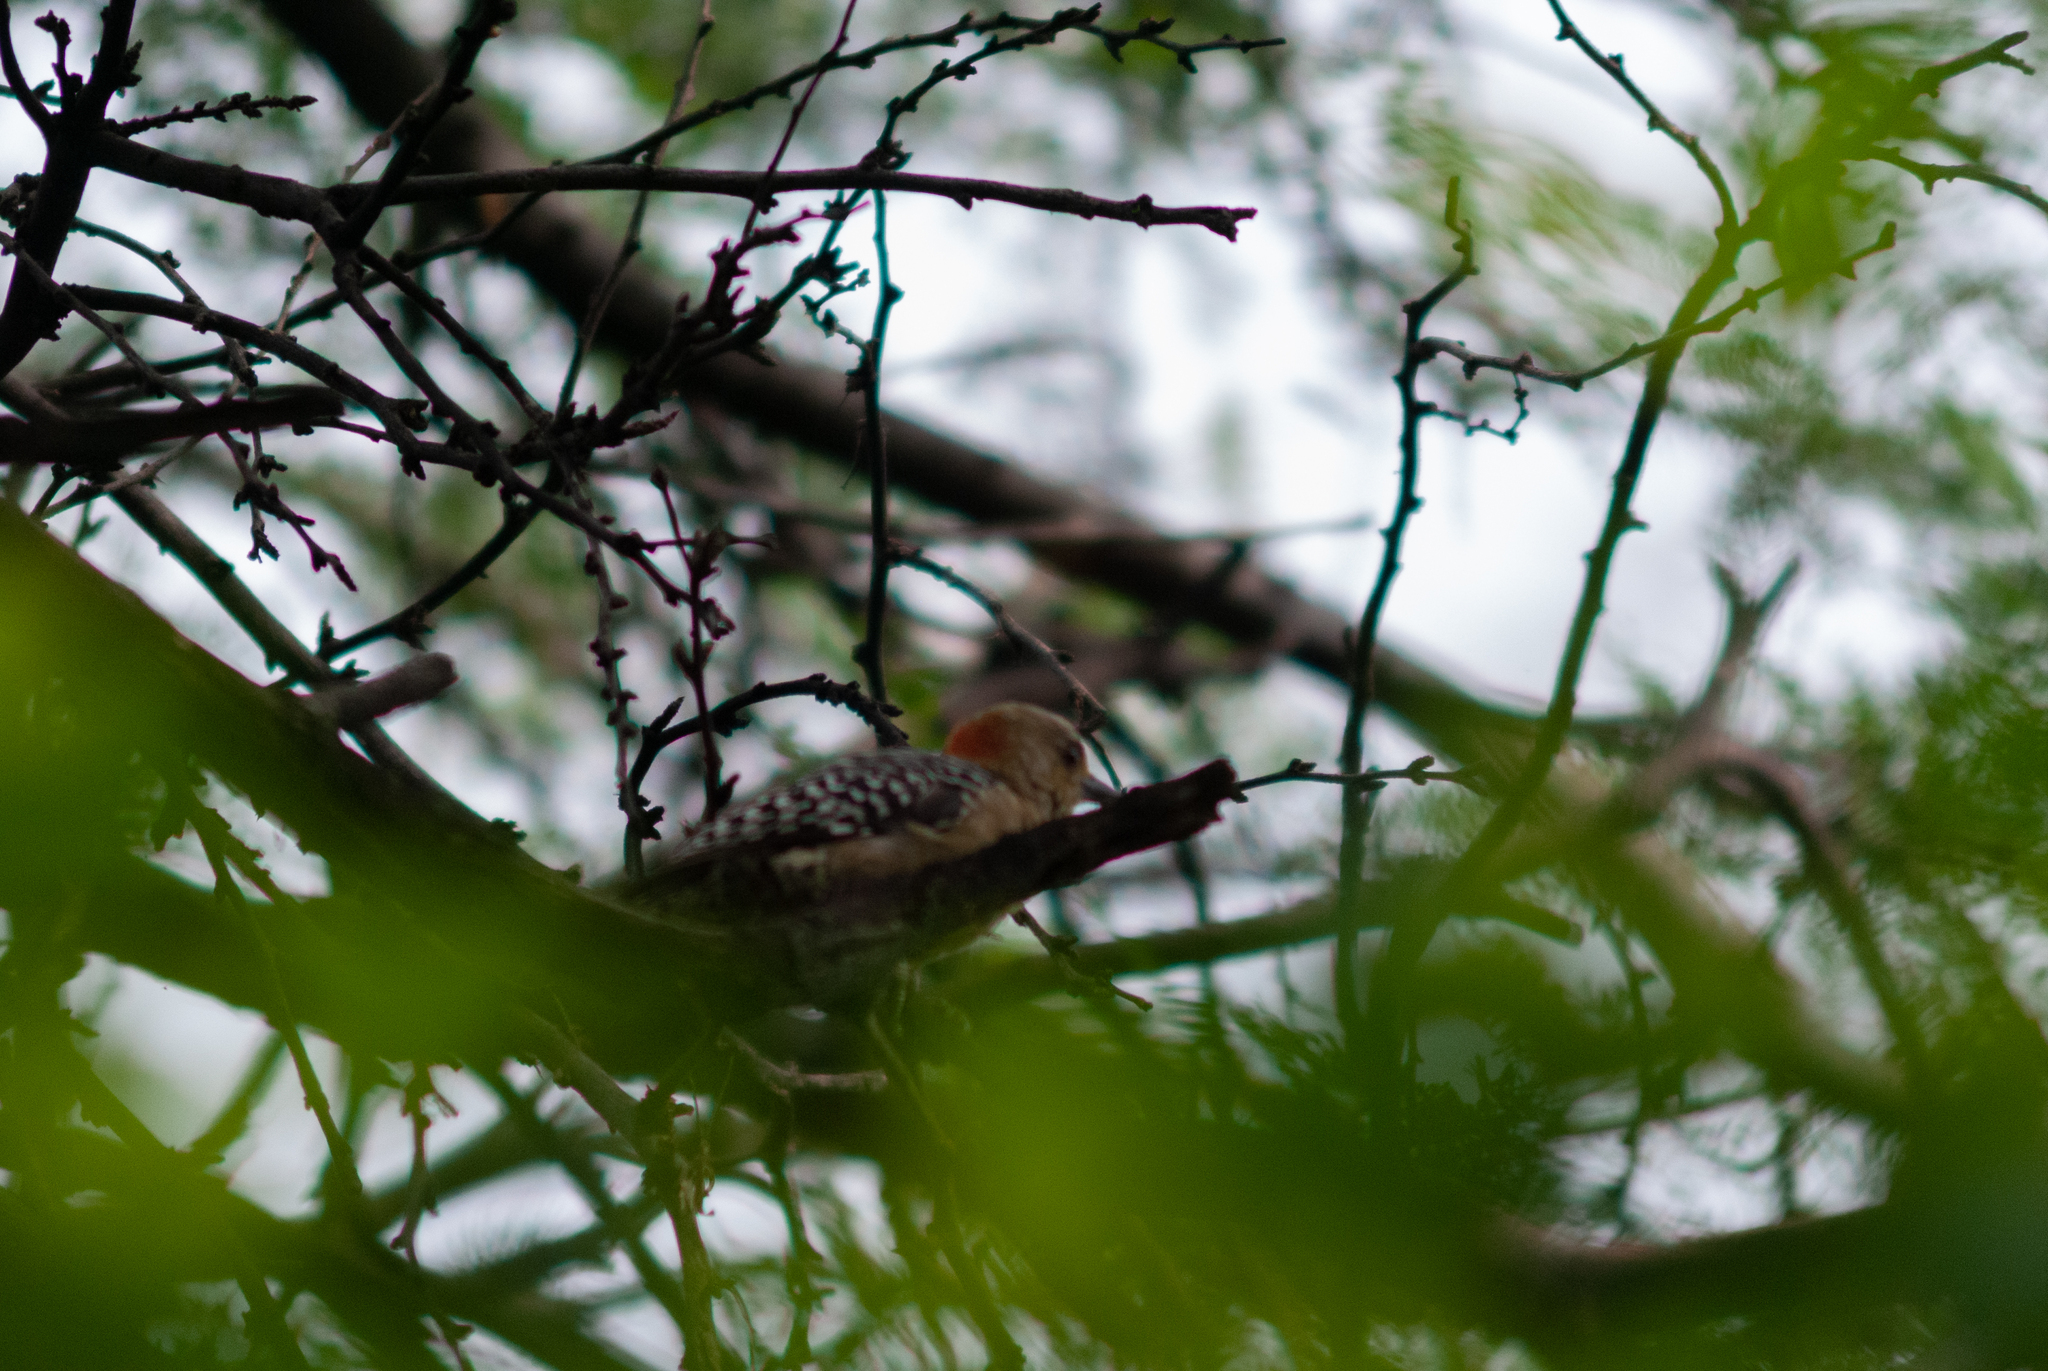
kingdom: Animalia
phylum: Chordata
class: Aves
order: Piciformes
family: Picidae
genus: Melanerpes
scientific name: Melanerpes rubricapillus
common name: Red-crowned woodpecker
